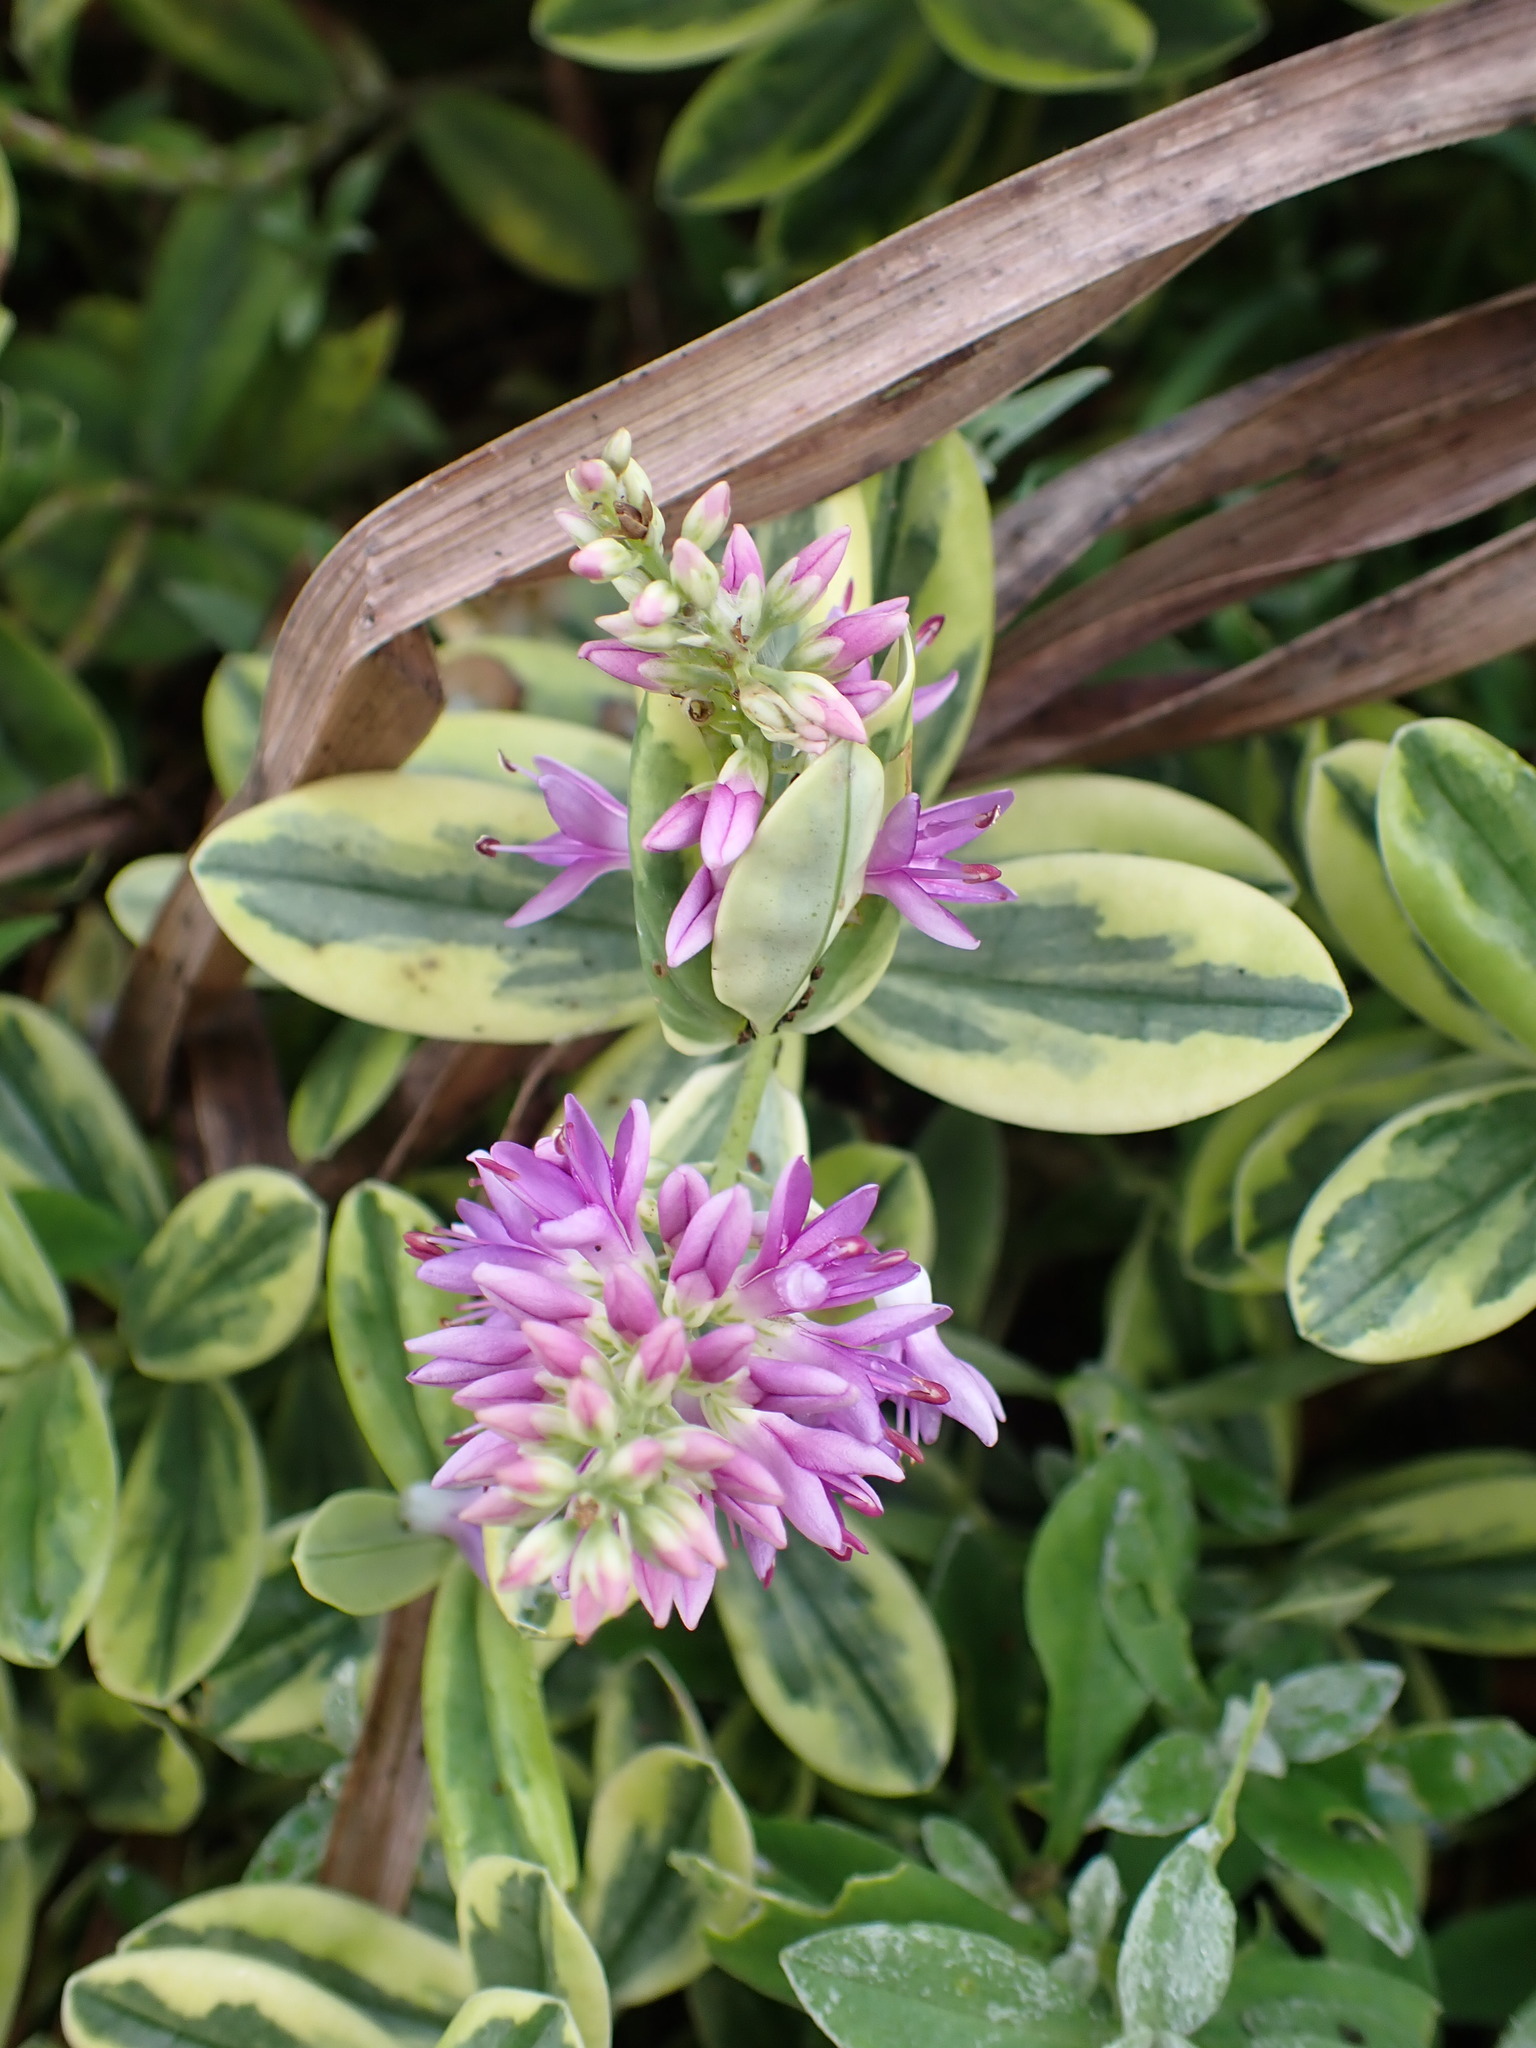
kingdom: Plantae
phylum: Tracheophyta
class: Magnoliopsida
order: Lamiales
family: Plantaginaceae
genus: Veronica
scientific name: Veronica franciscana
